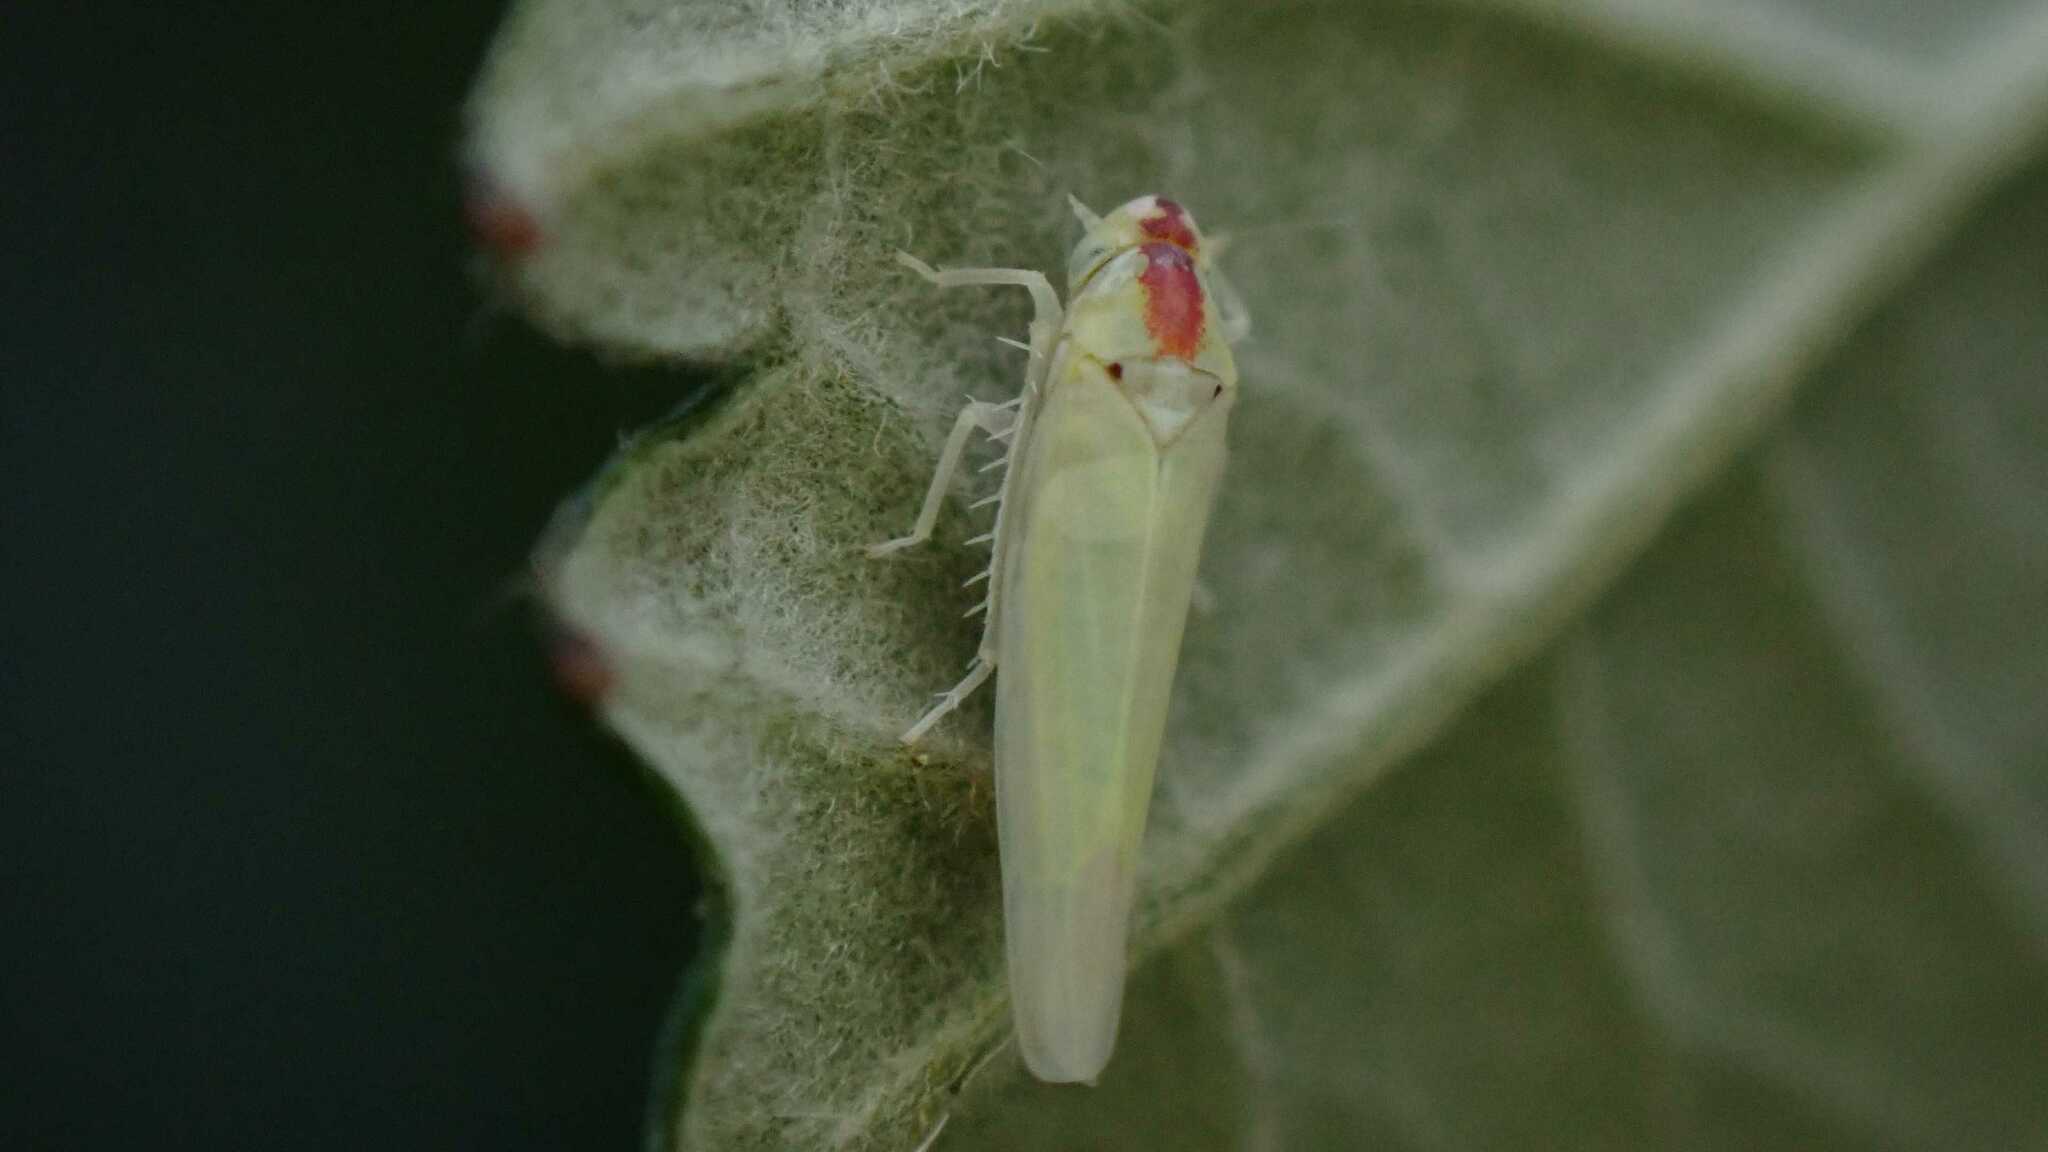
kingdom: Animalia
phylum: Arthropoda
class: Insecta
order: Hemiptera
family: Cicadellidae
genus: Zygina
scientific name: Zygina nivea
